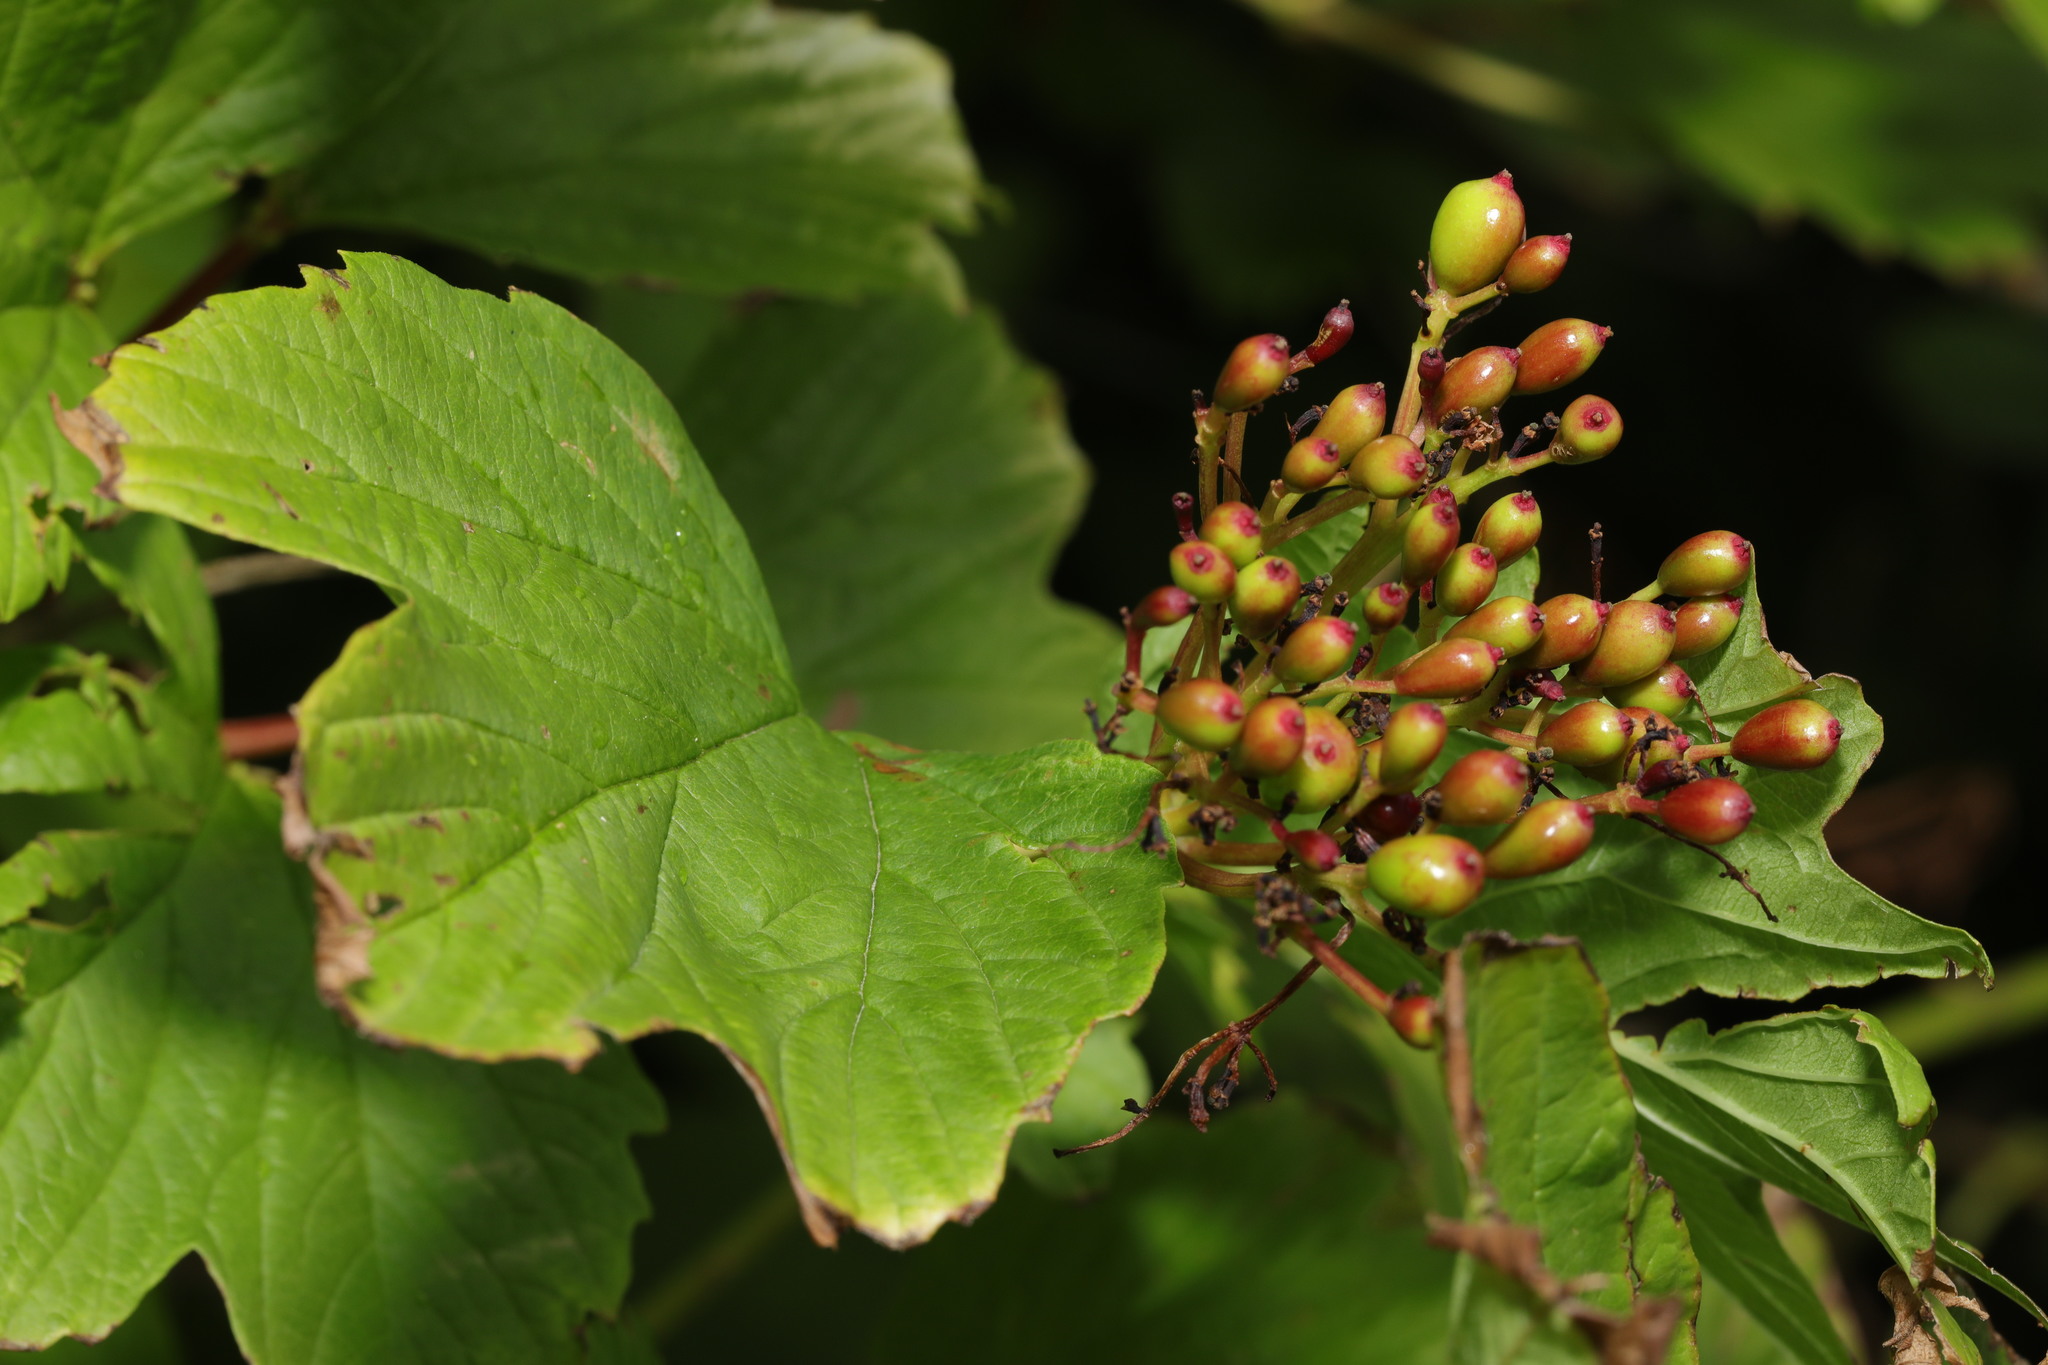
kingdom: Plantae
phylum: Tracheophyta
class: Magnoliopsida
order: Dipsacales
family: Viburnaceae
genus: Viburnum
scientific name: Viburnum opulus
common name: Guelder-rose
